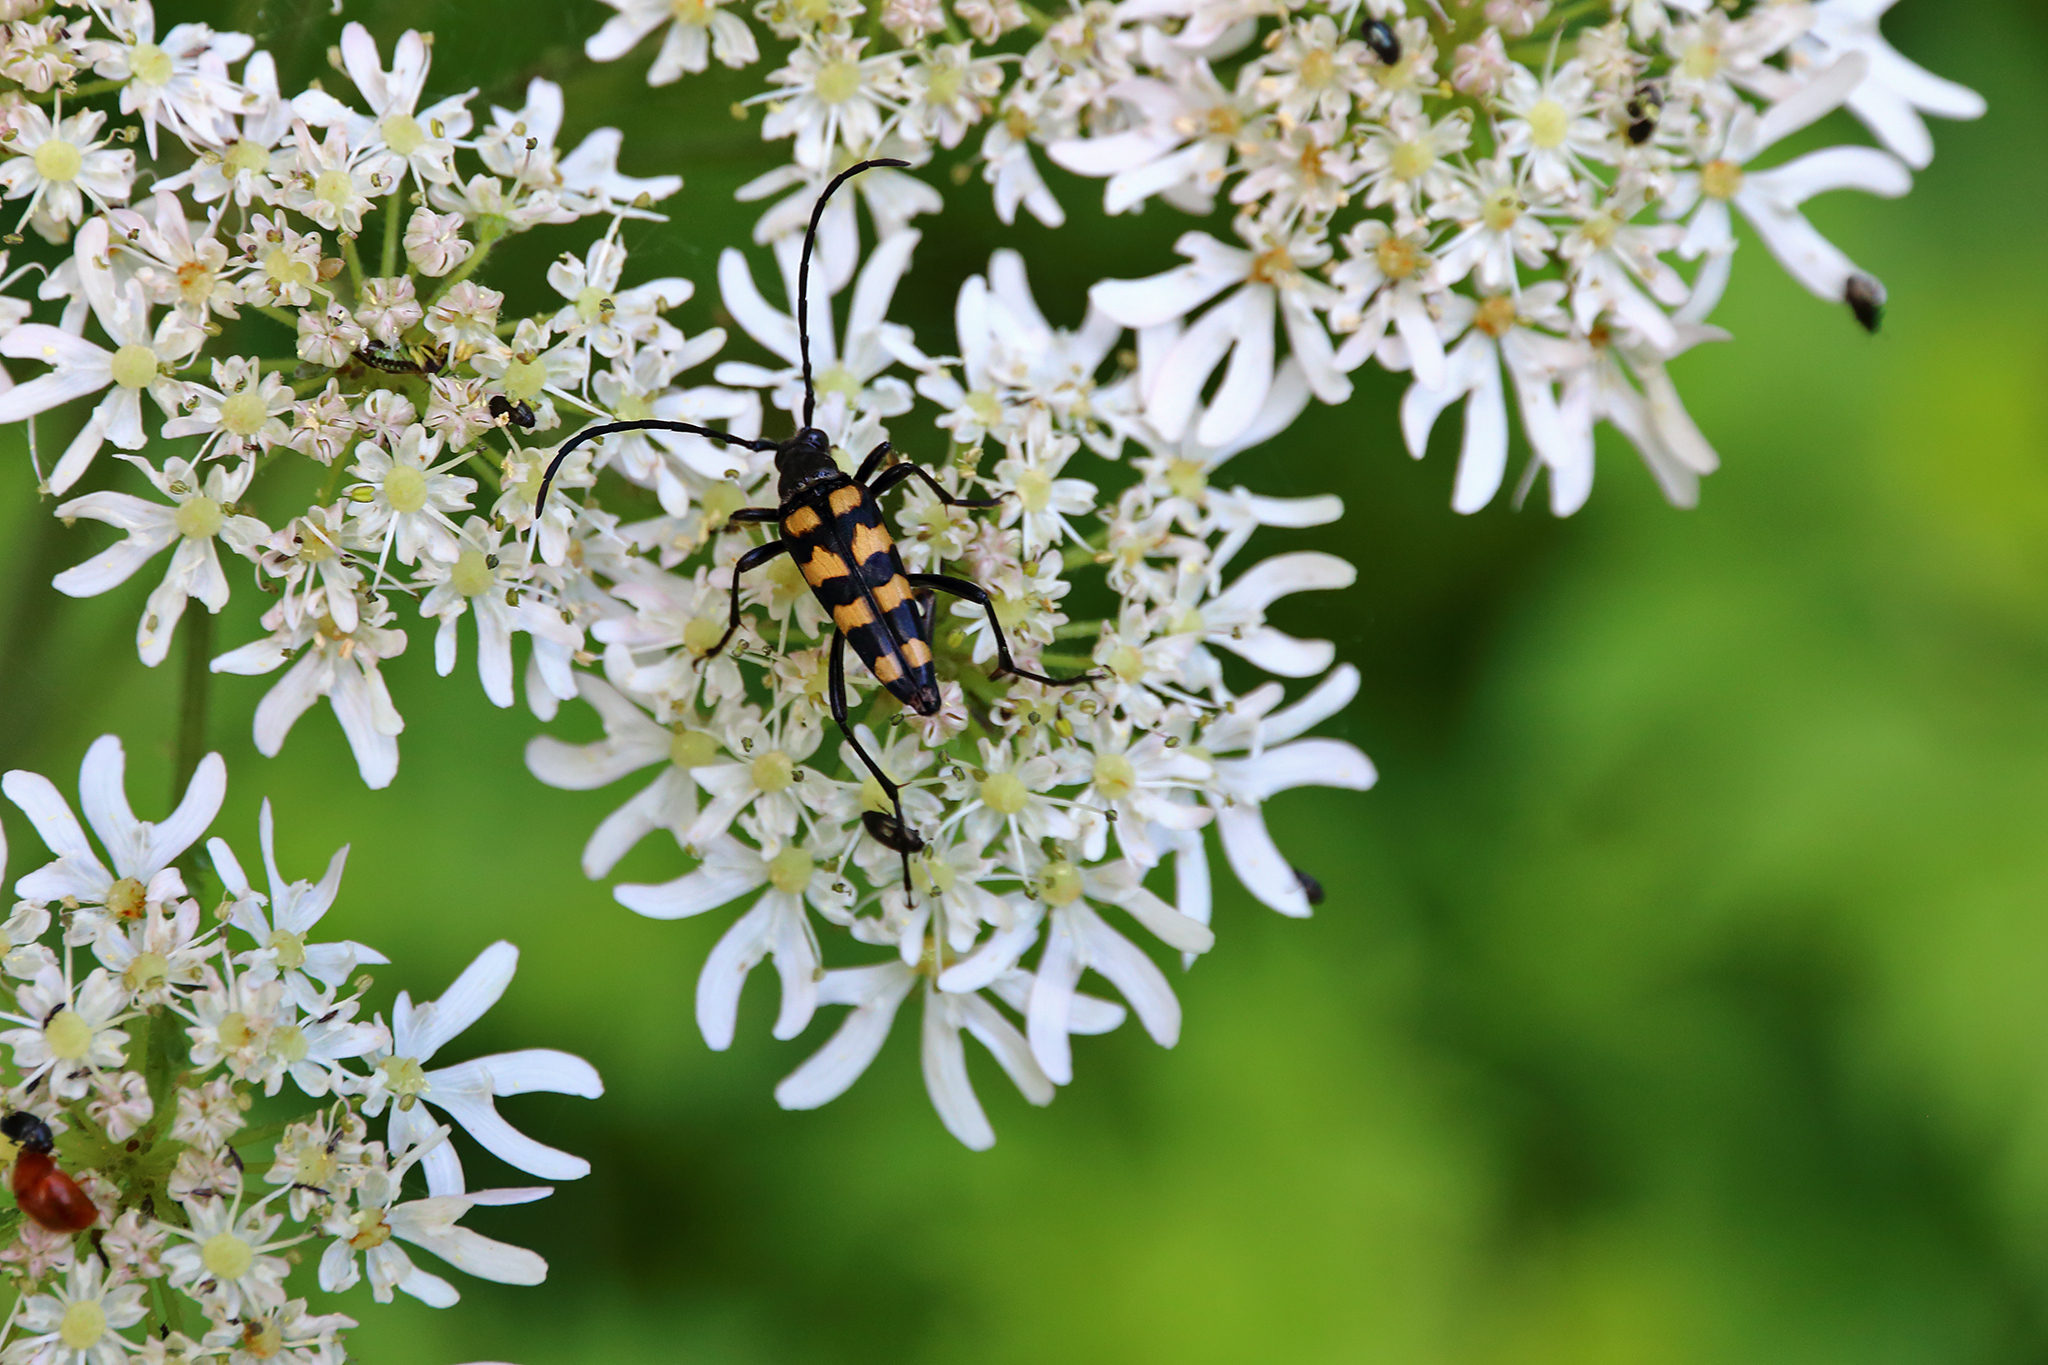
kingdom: Animalia
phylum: Arthropoda
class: Insecta
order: Coleoptera
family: Cerambycidae
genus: Leptura
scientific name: Leptura quadrifasciata
